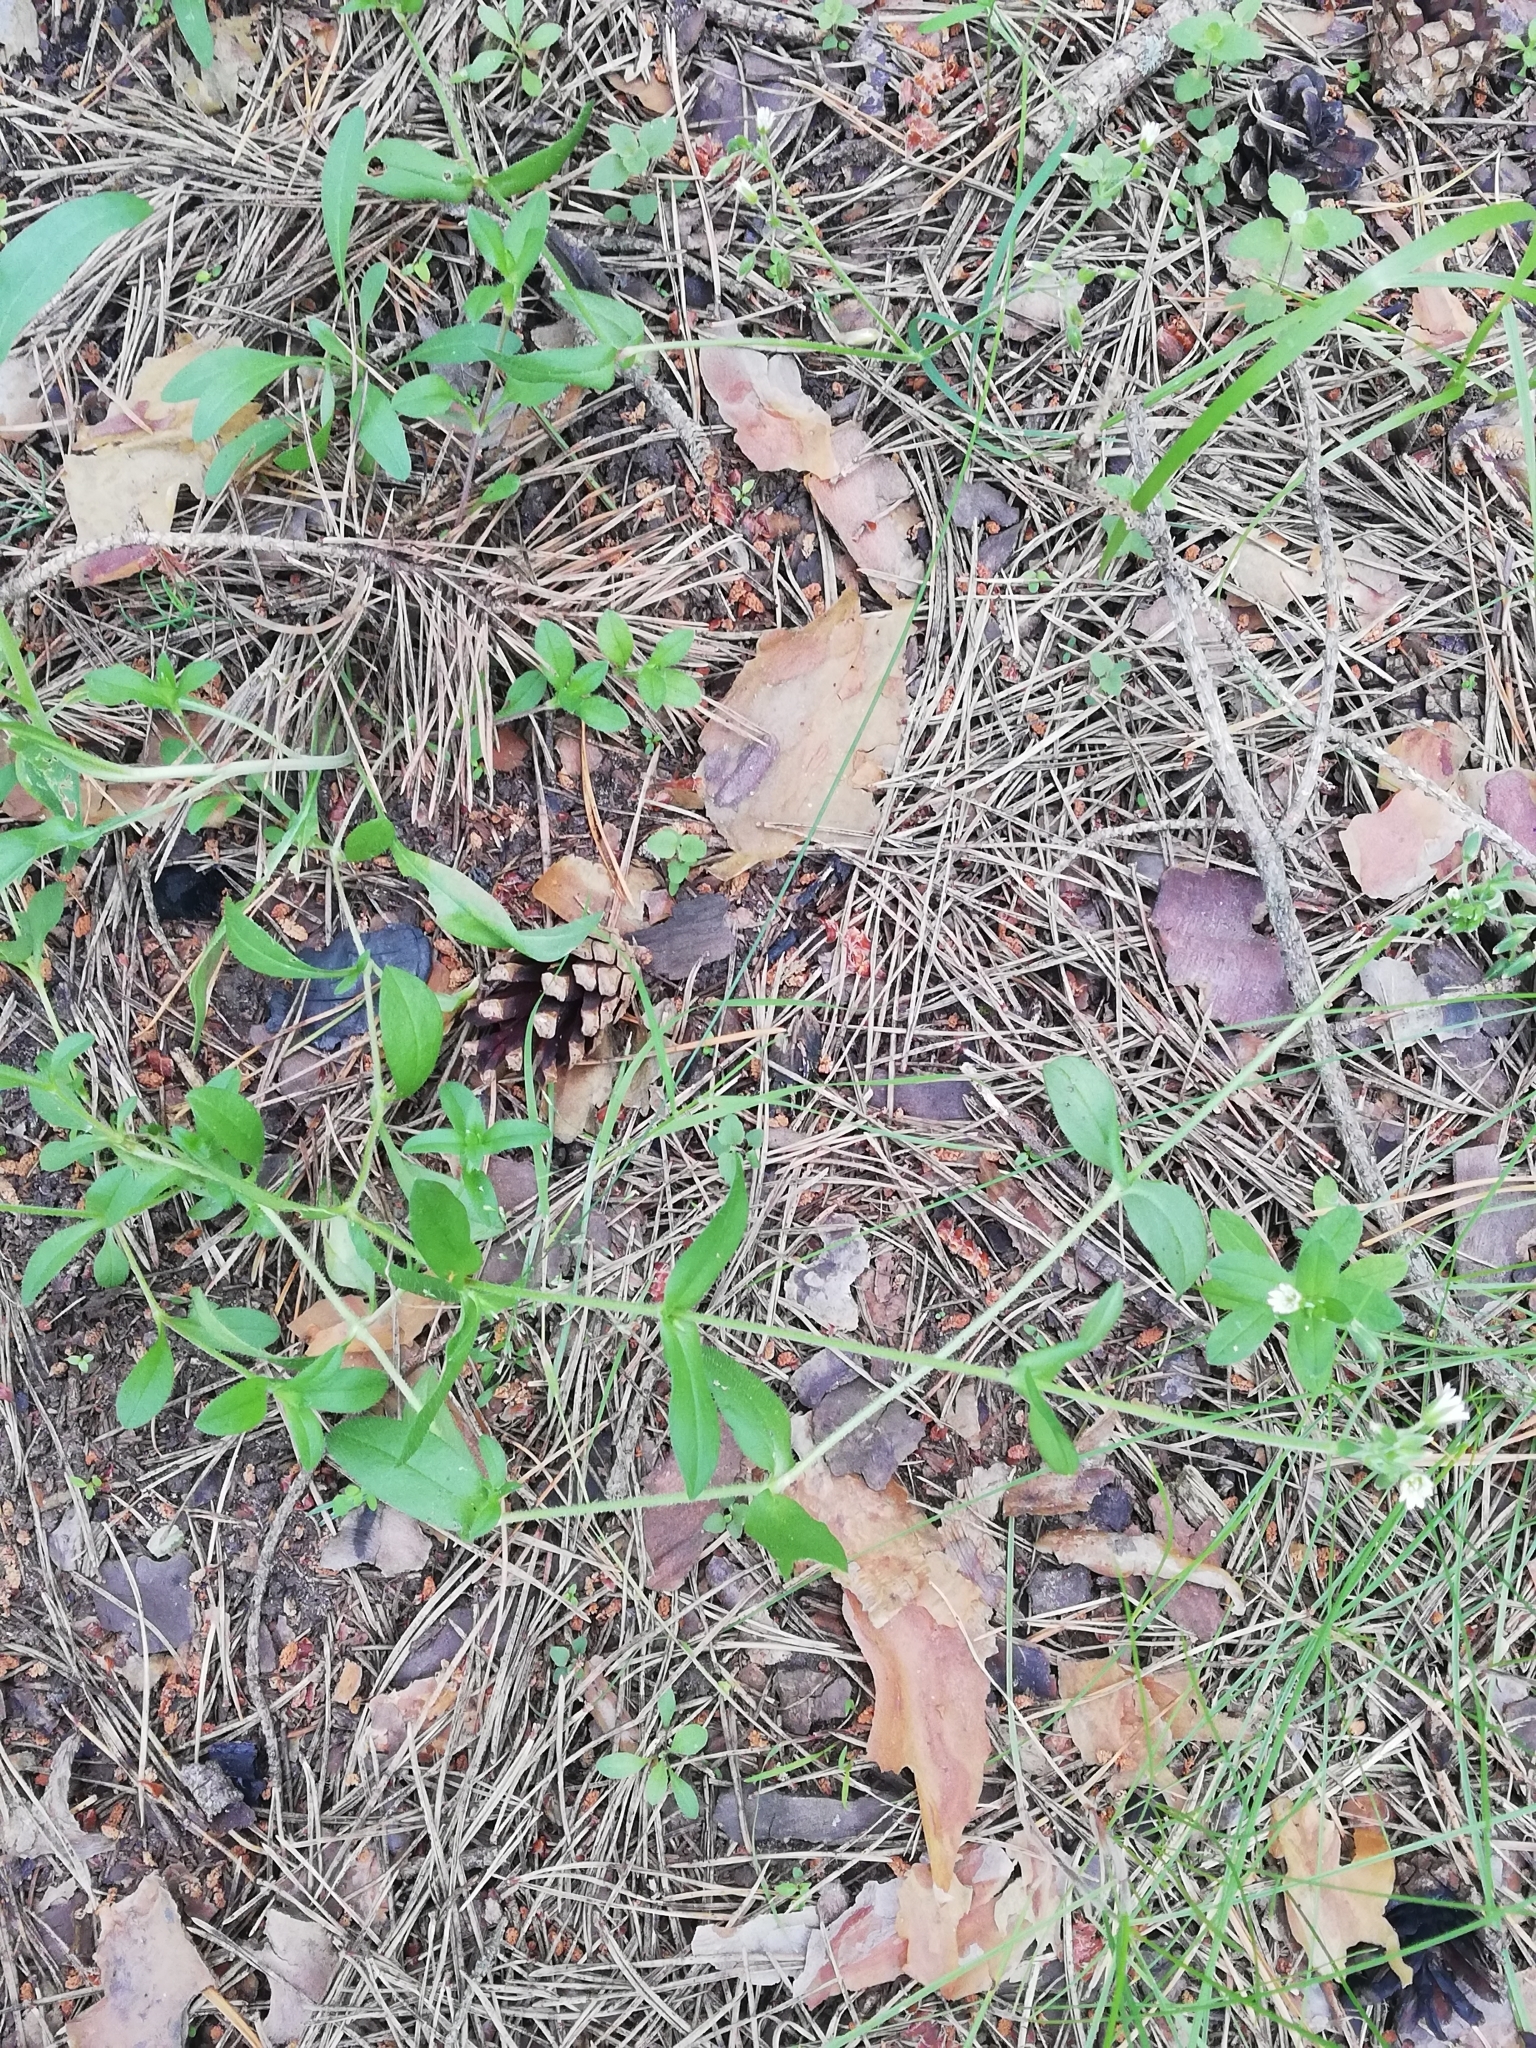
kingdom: Plantae
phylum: Tracheophyta
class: Magnoliopsida
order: Caryophyllales
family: Caryophyllaceae
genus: Cerastium
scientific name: Cerastium holosteoides
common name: Big chickweed
